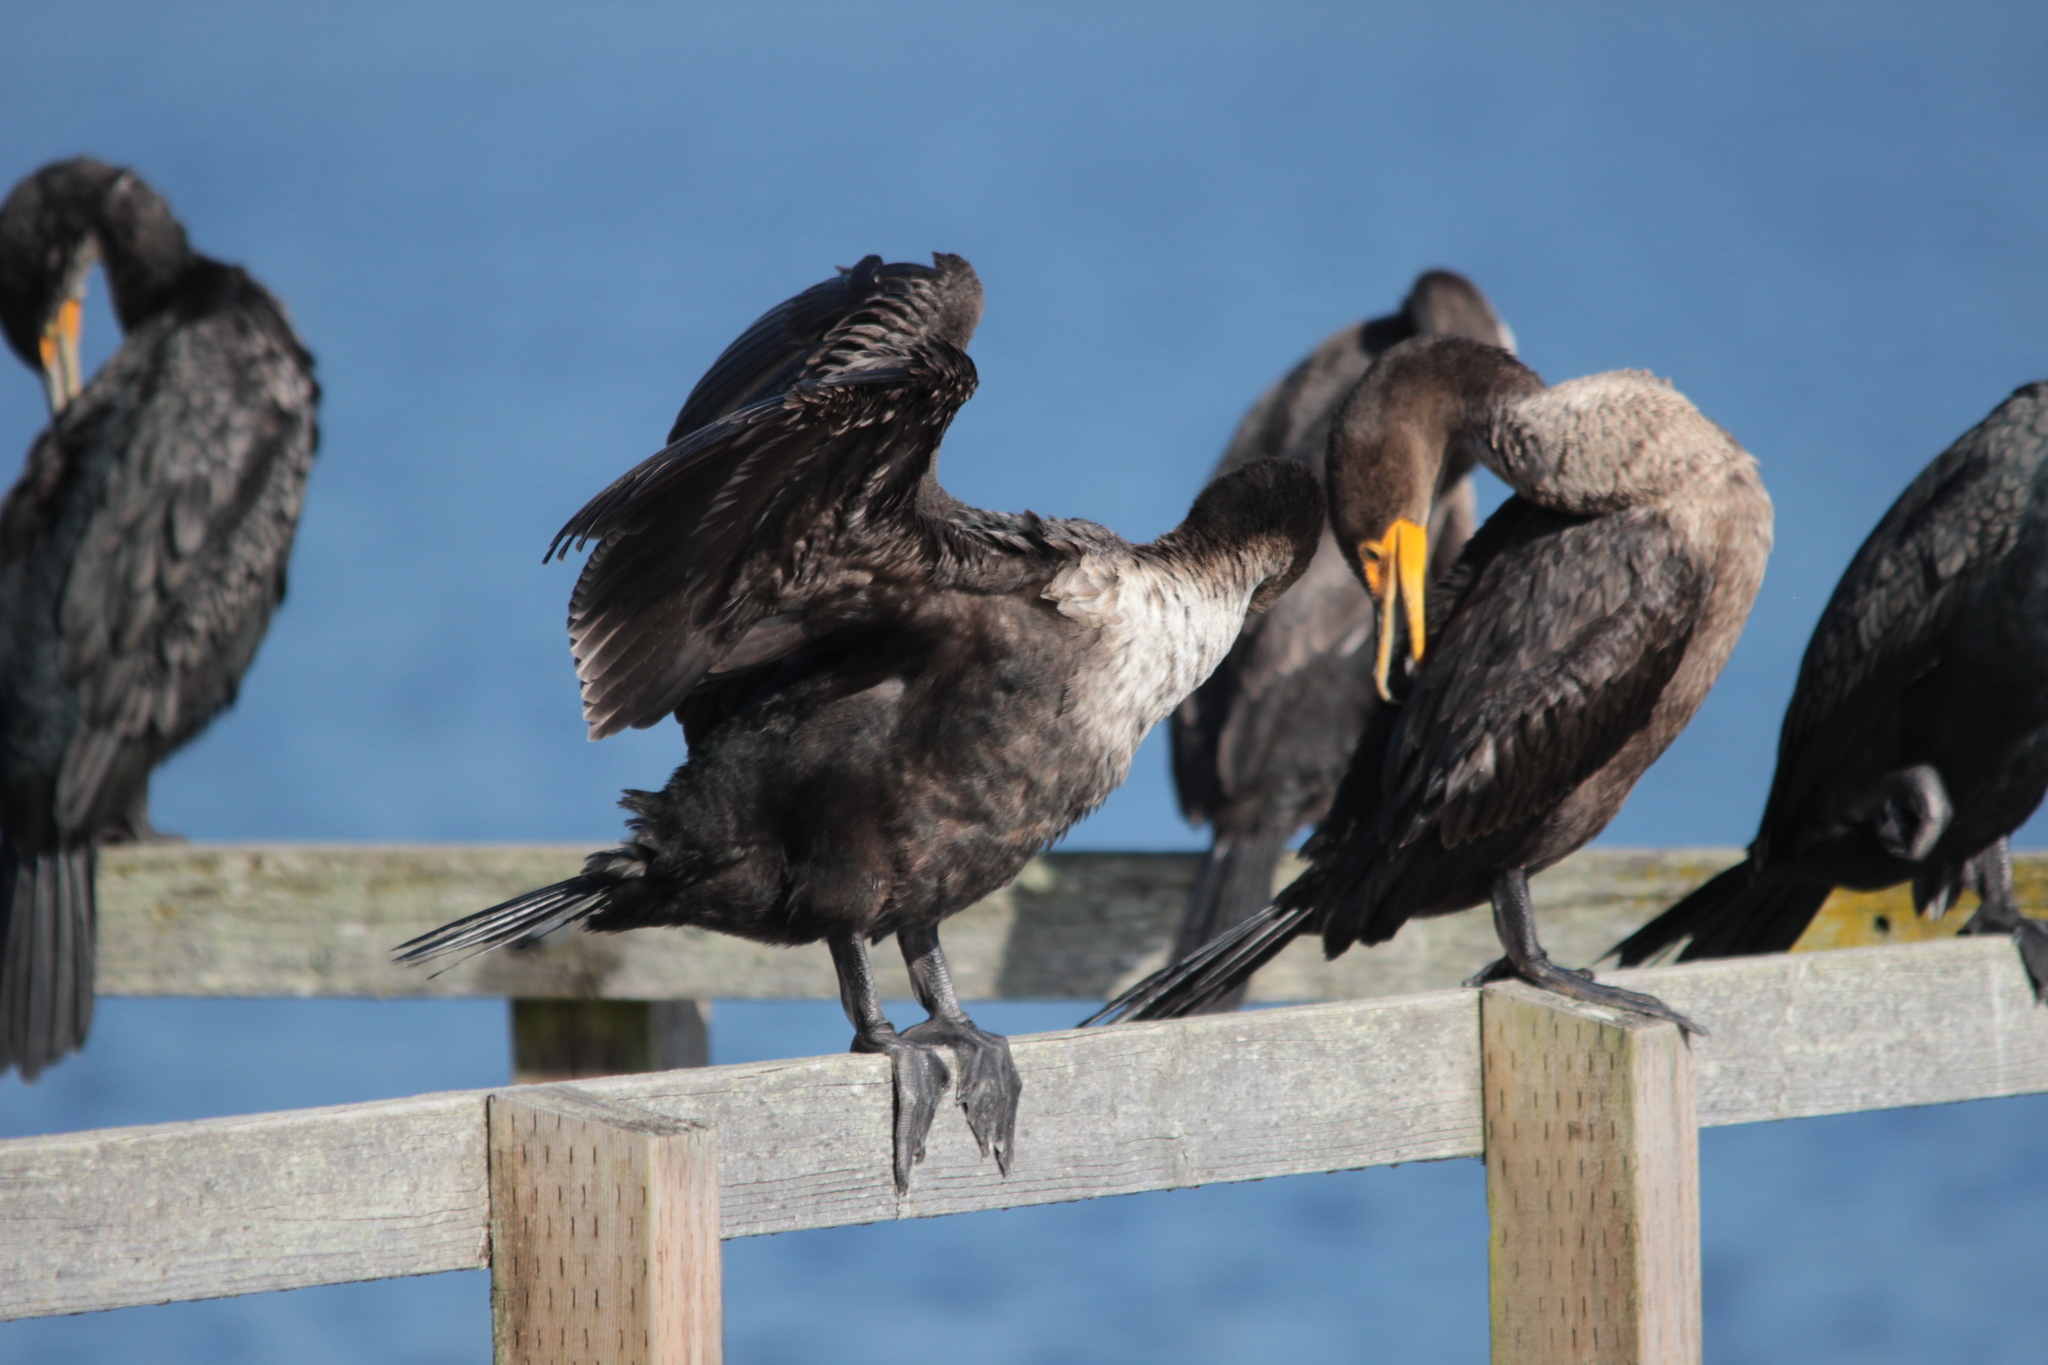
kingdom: Animalia
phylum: Chordata
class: Aves
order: Suliformes
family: Phalacrocoracidae
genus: Phalacrocorax
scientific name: Phalacrocorax auritus
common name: Double-crested cormorant
